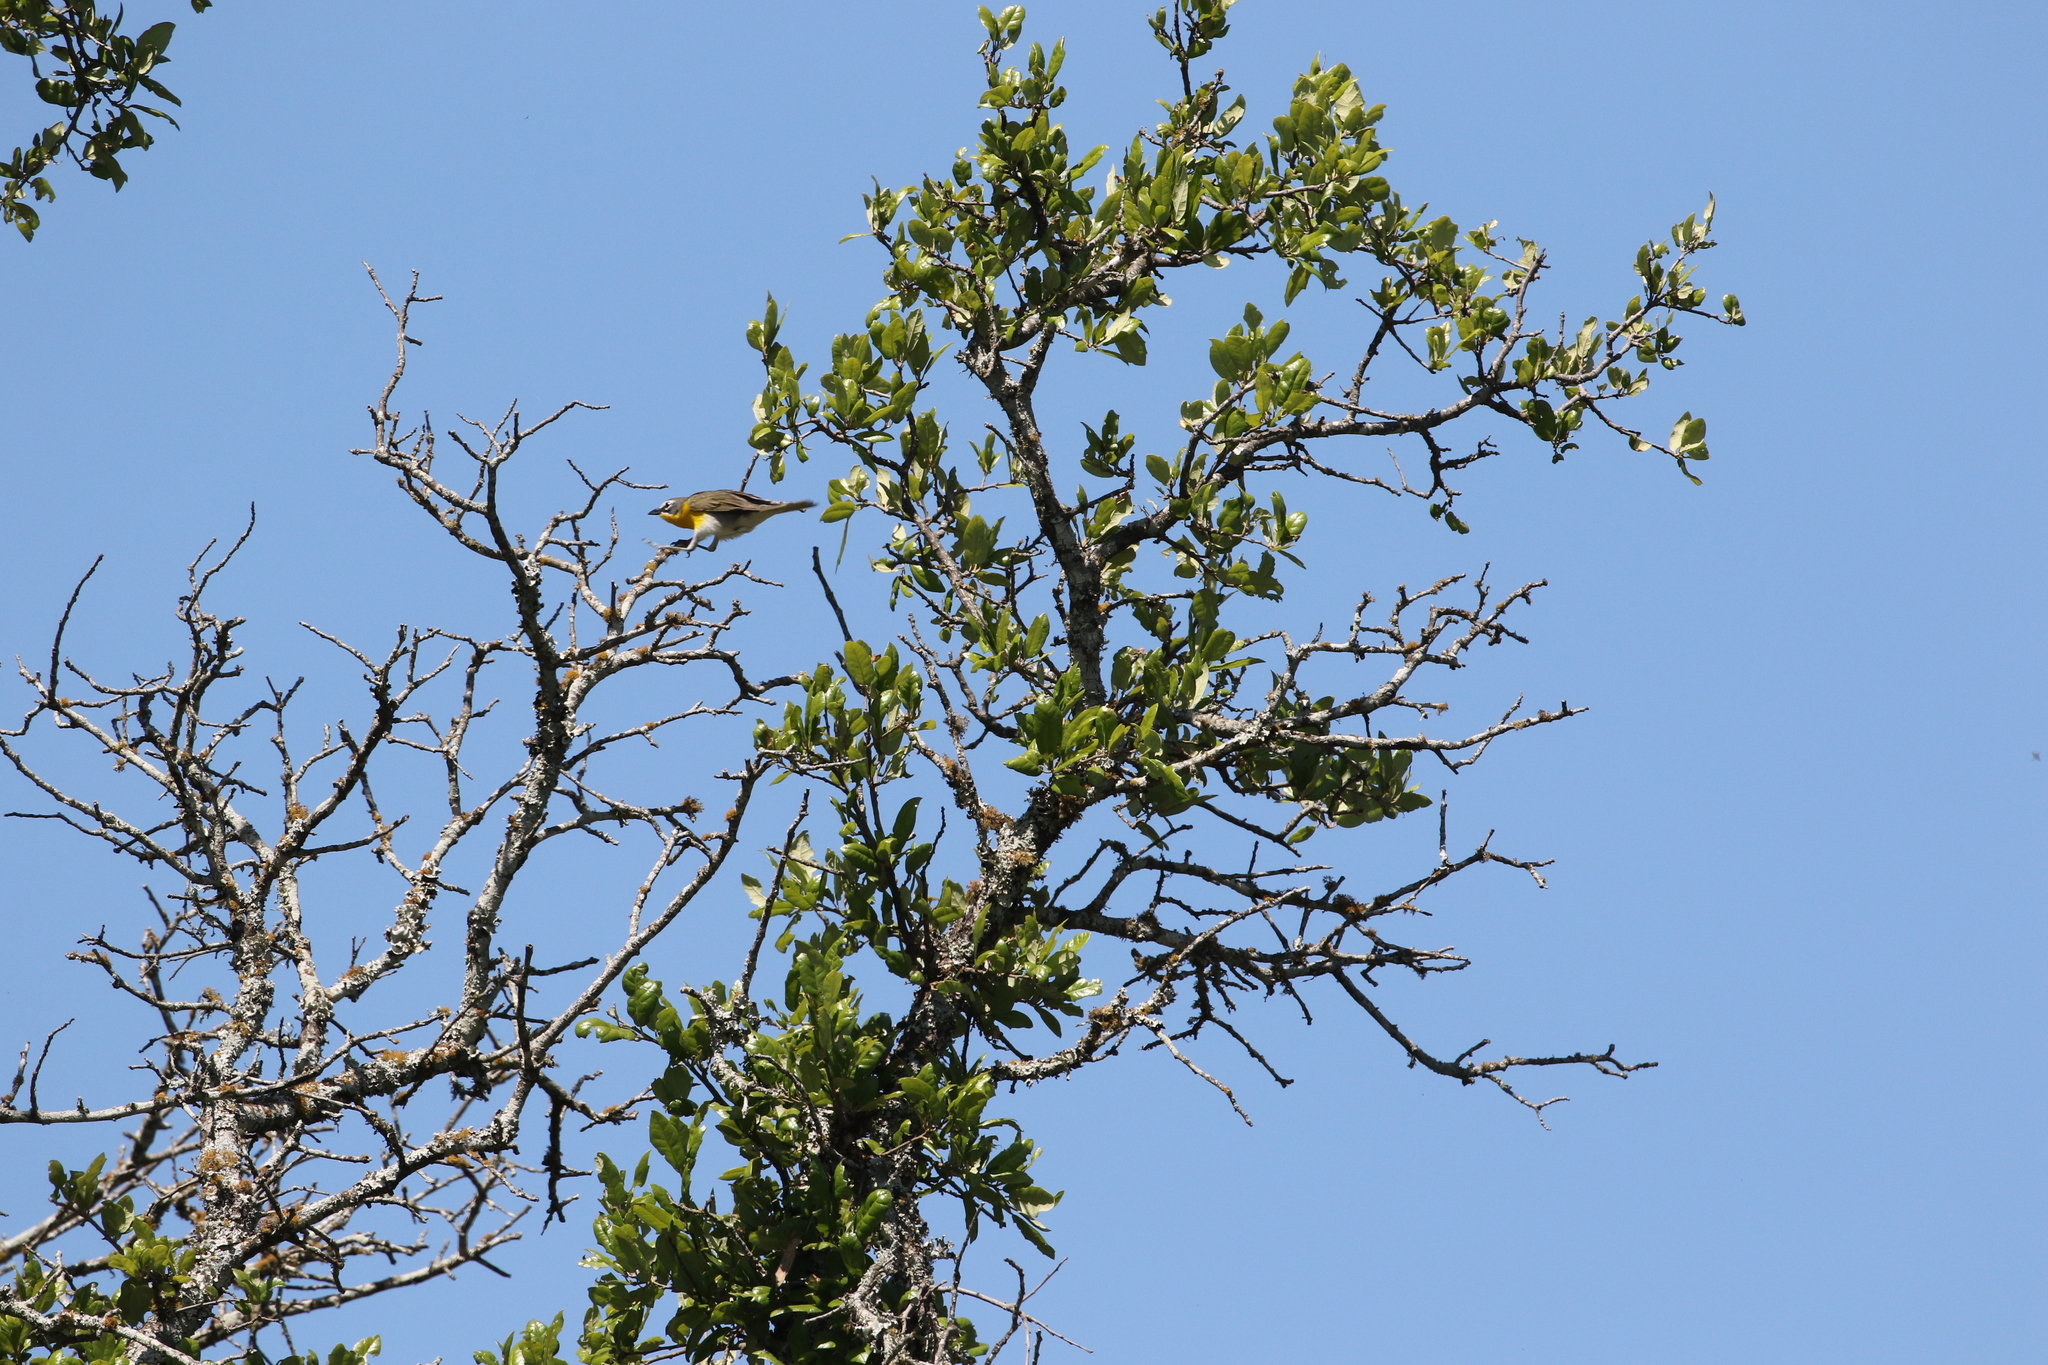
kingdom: Animalia
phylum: Chordata
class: Aves
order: Passeriformes
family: Parulidae
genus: Icteria
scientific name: Icteria virens
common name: Yellow-breasted chat
